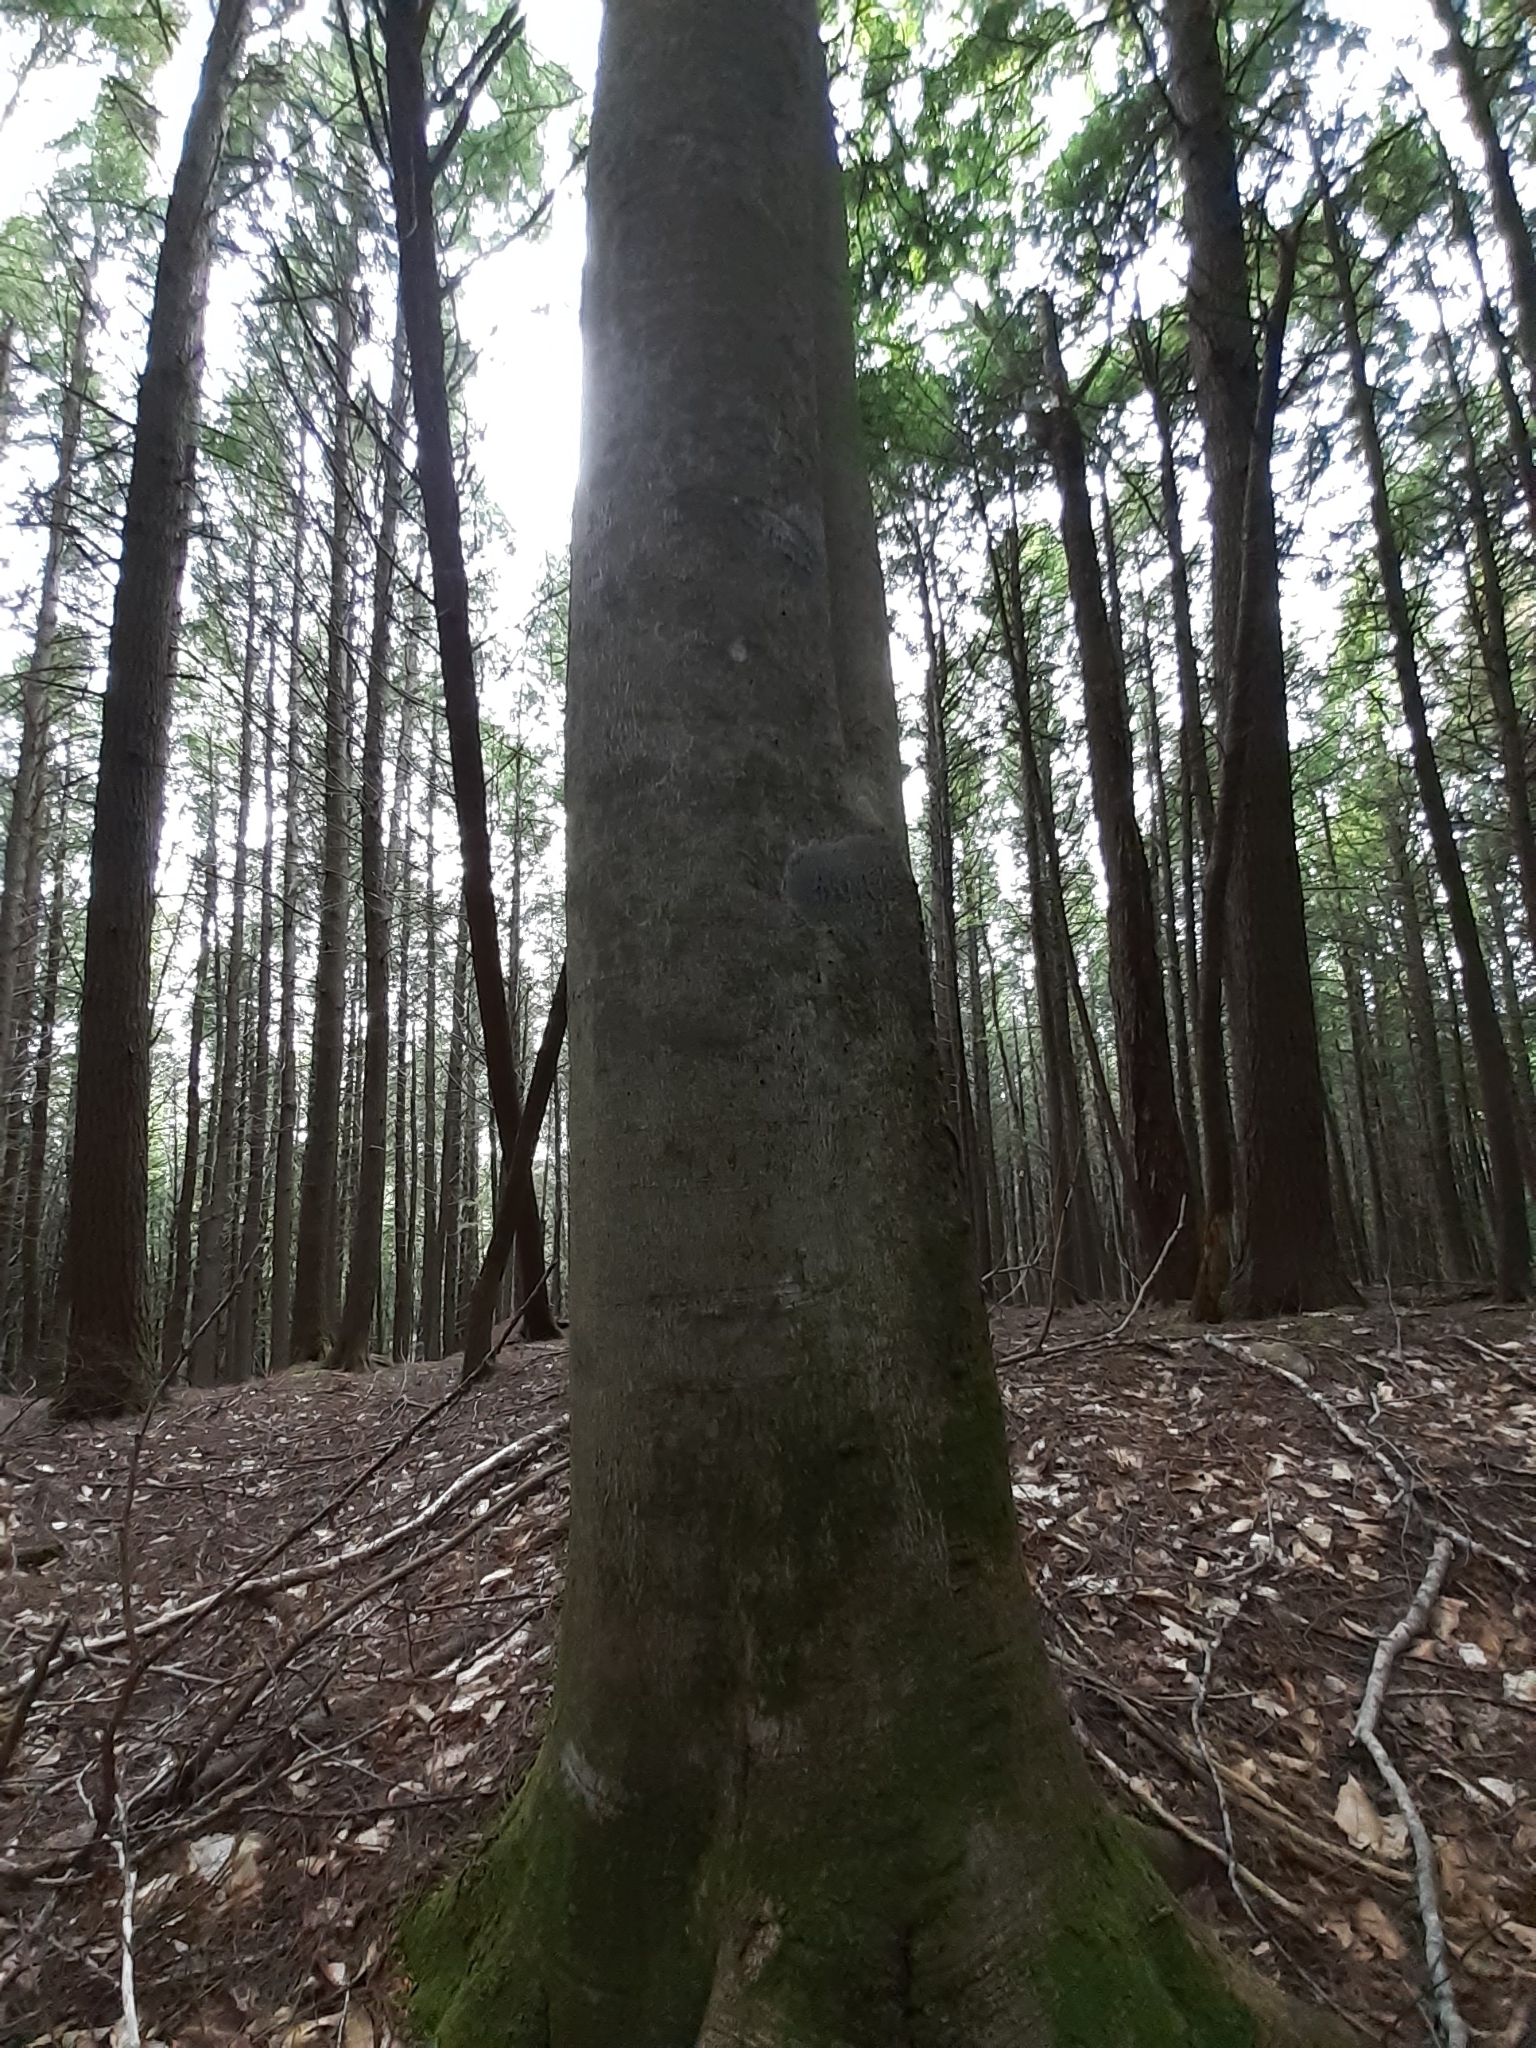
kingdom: Plantae
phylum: Tracheophyta
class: Magnoliopsida
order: Fagales
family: Fagaceae
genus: Fagus
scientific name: Fagus grandifolia
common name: American beech
